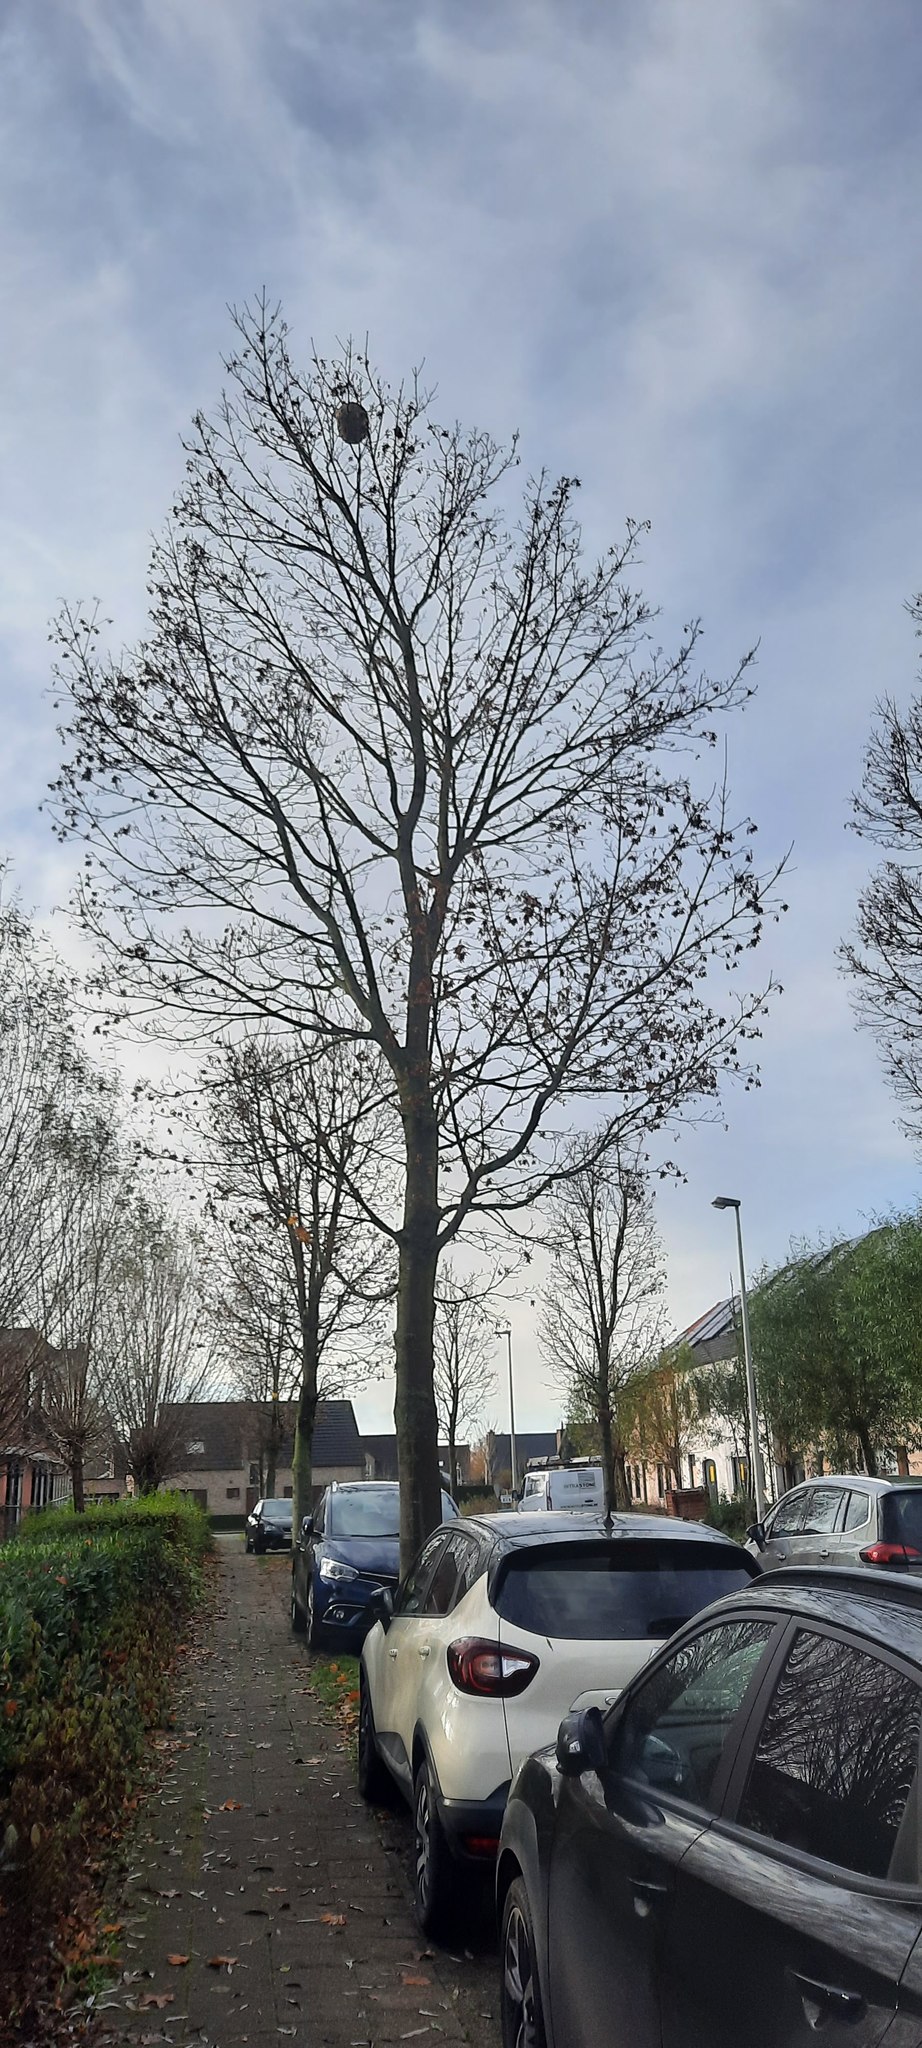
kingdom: Animalia
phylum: Arthropoda
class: Insecta
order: Hymenoptera
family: Vespidae
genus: Vespa
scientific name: Vespa velutina
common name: Asian hornet
